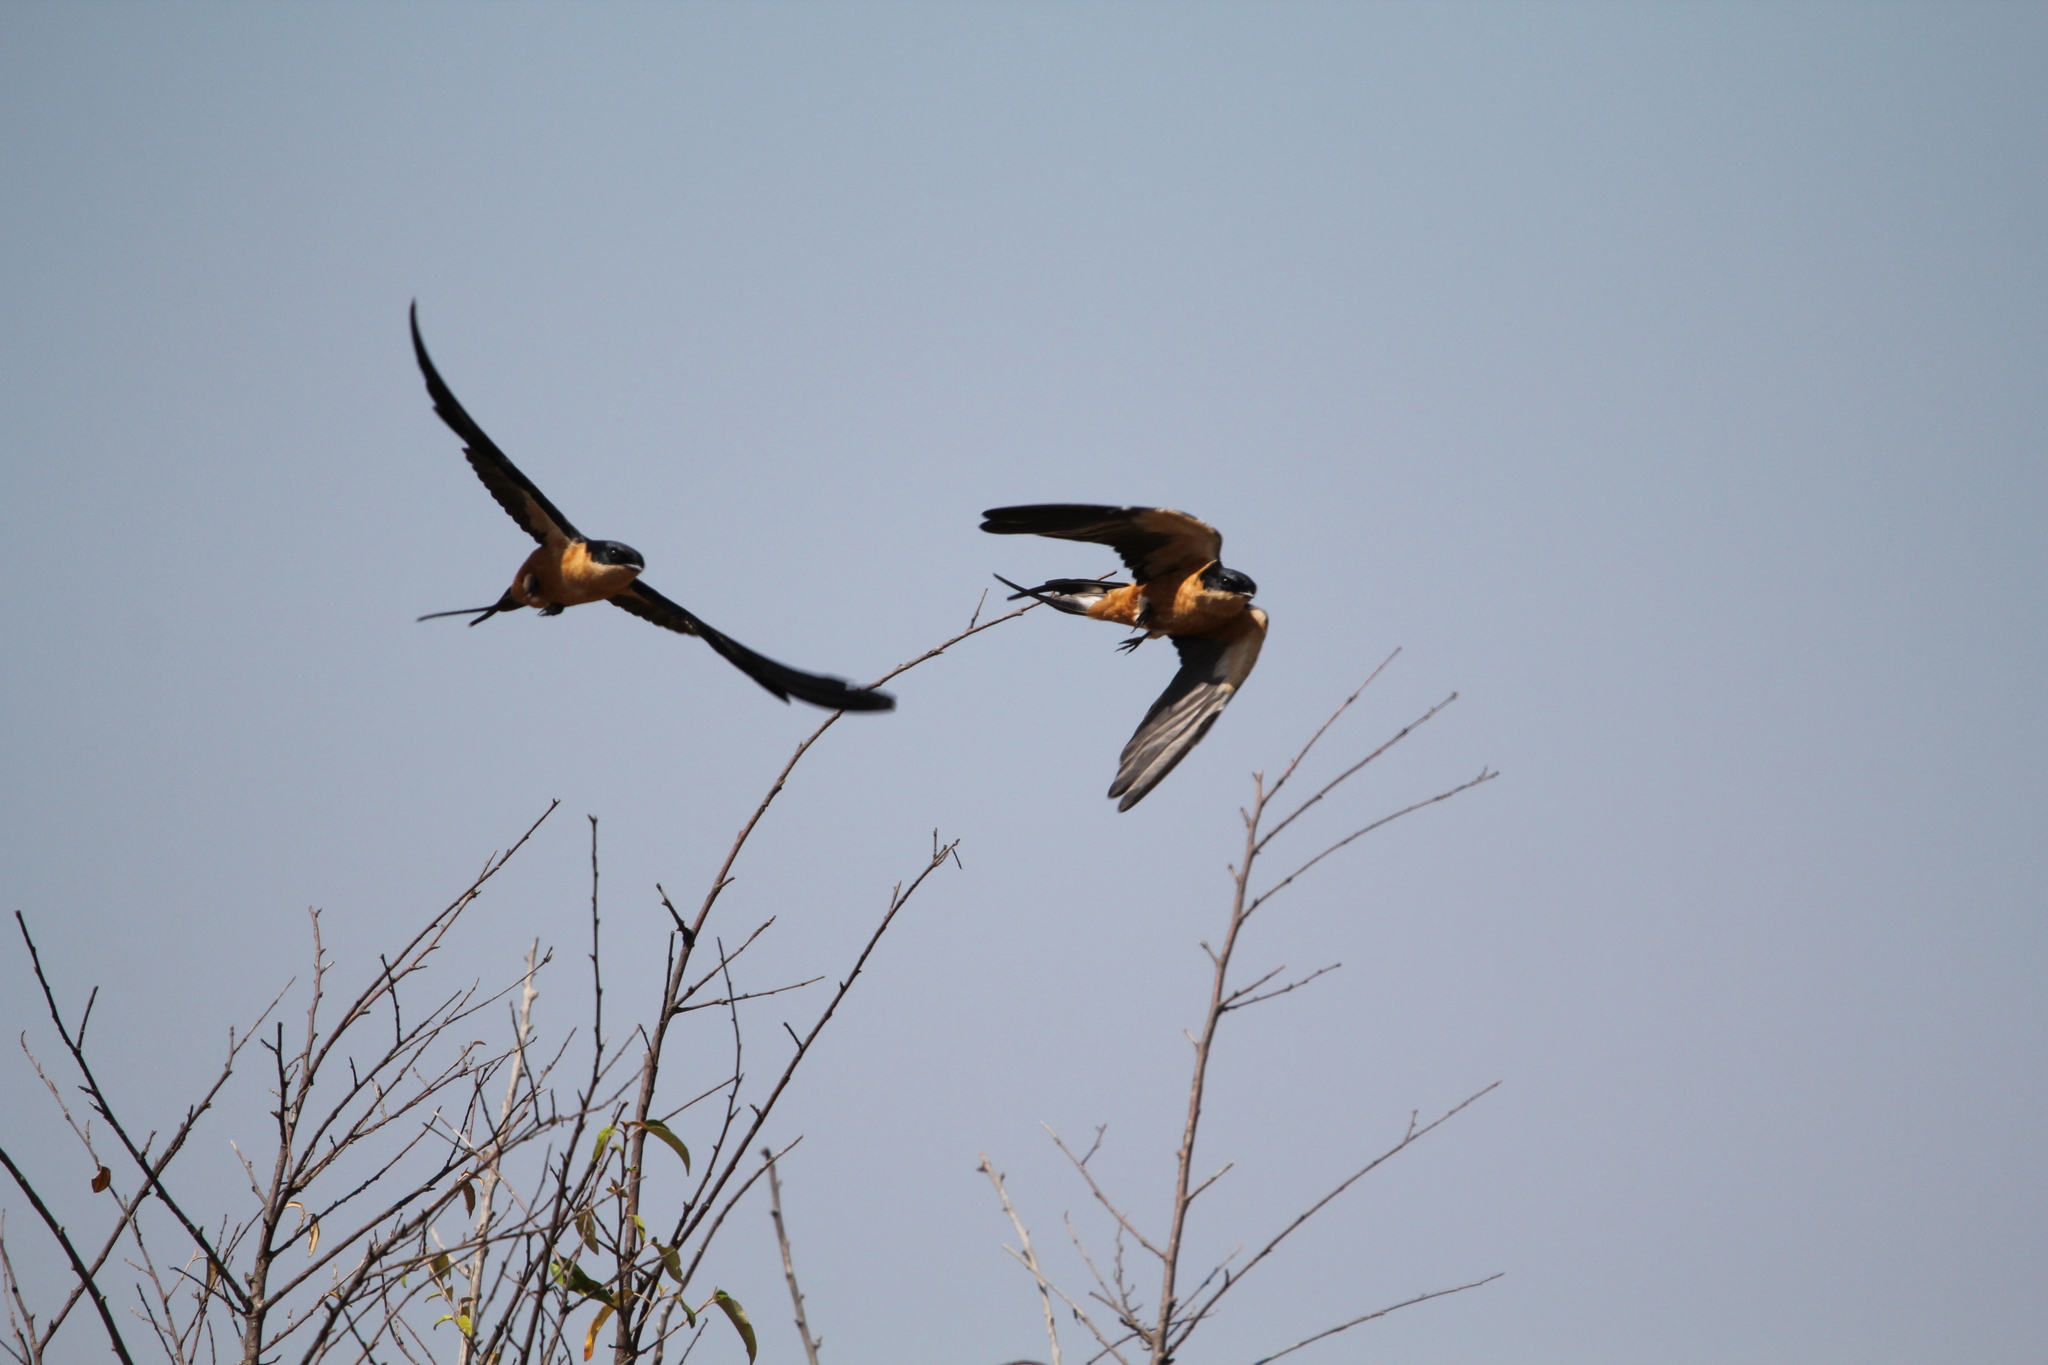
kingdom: Animalia
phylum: Chordata
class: Aves
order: Passeriformes
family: Hirundinidae
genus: Cecropis
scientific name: Cecropis semirufa
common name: Red-breasted swallow
